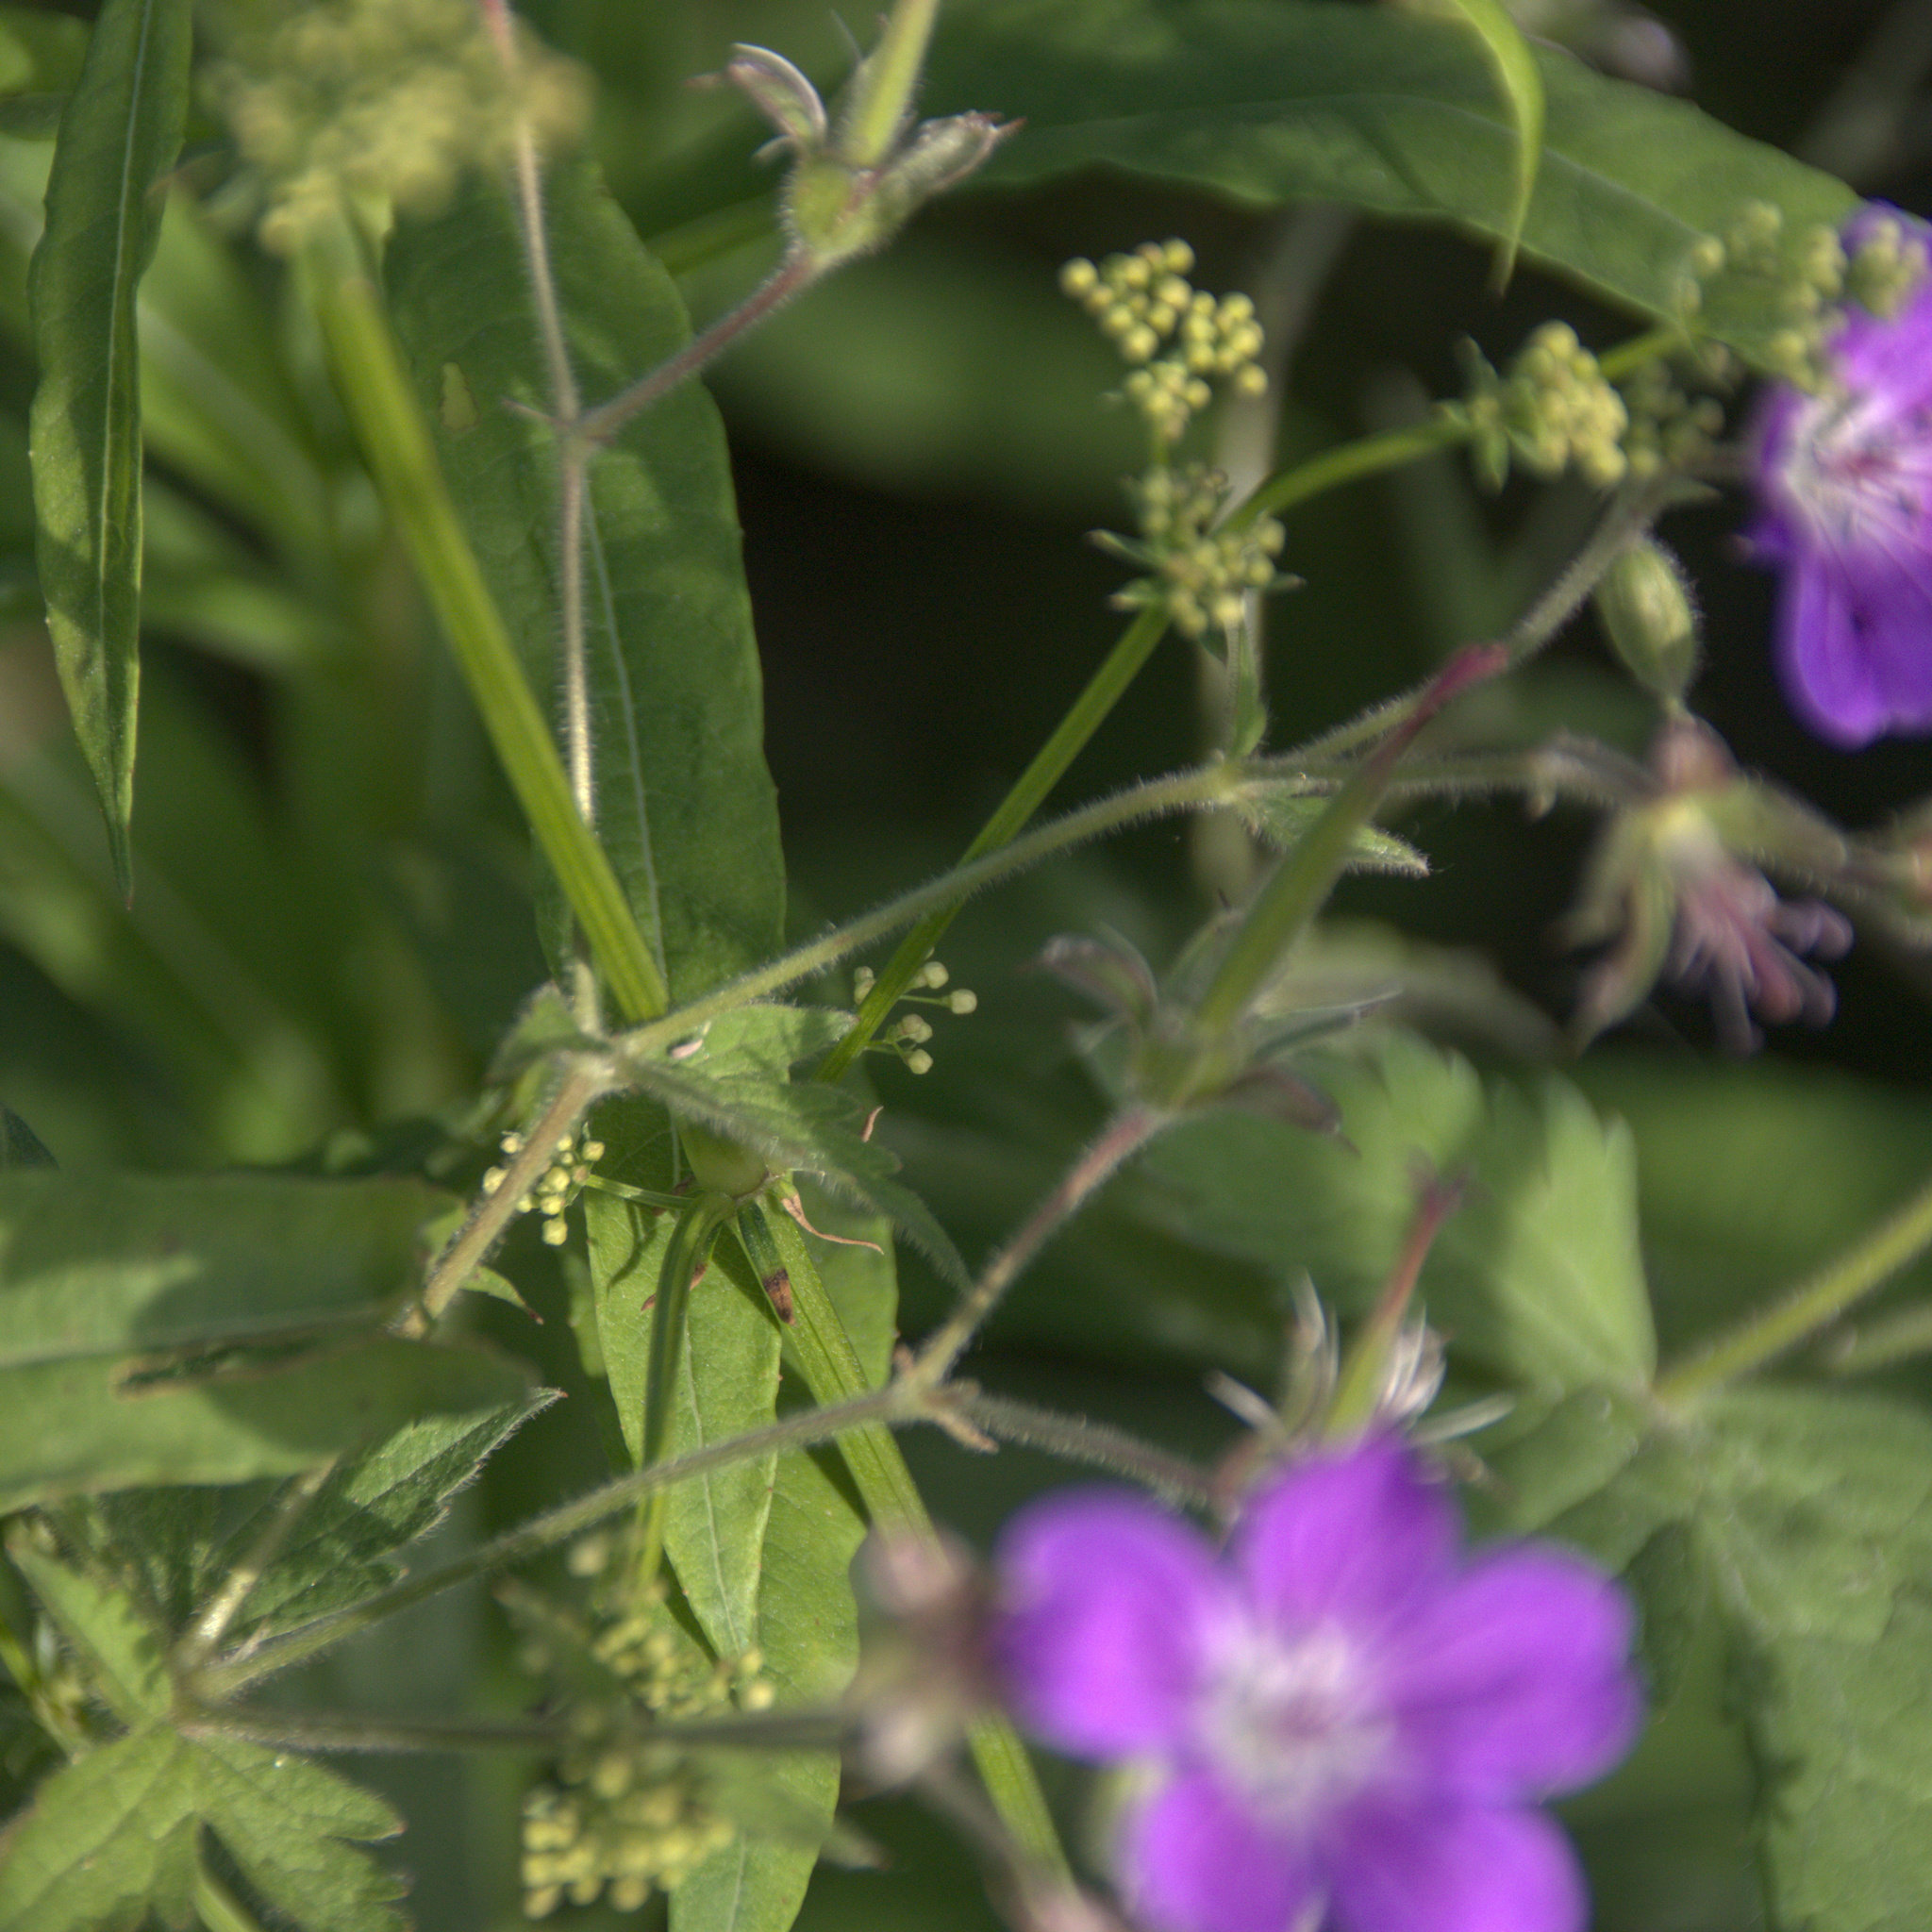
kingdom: Plantae
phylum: Tracheophyta
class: Magnoliopsida
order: Geraniales
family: Geraniaceae
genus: Geranium
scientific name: Geranium sylvaticum
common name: Wood crane's-bill
